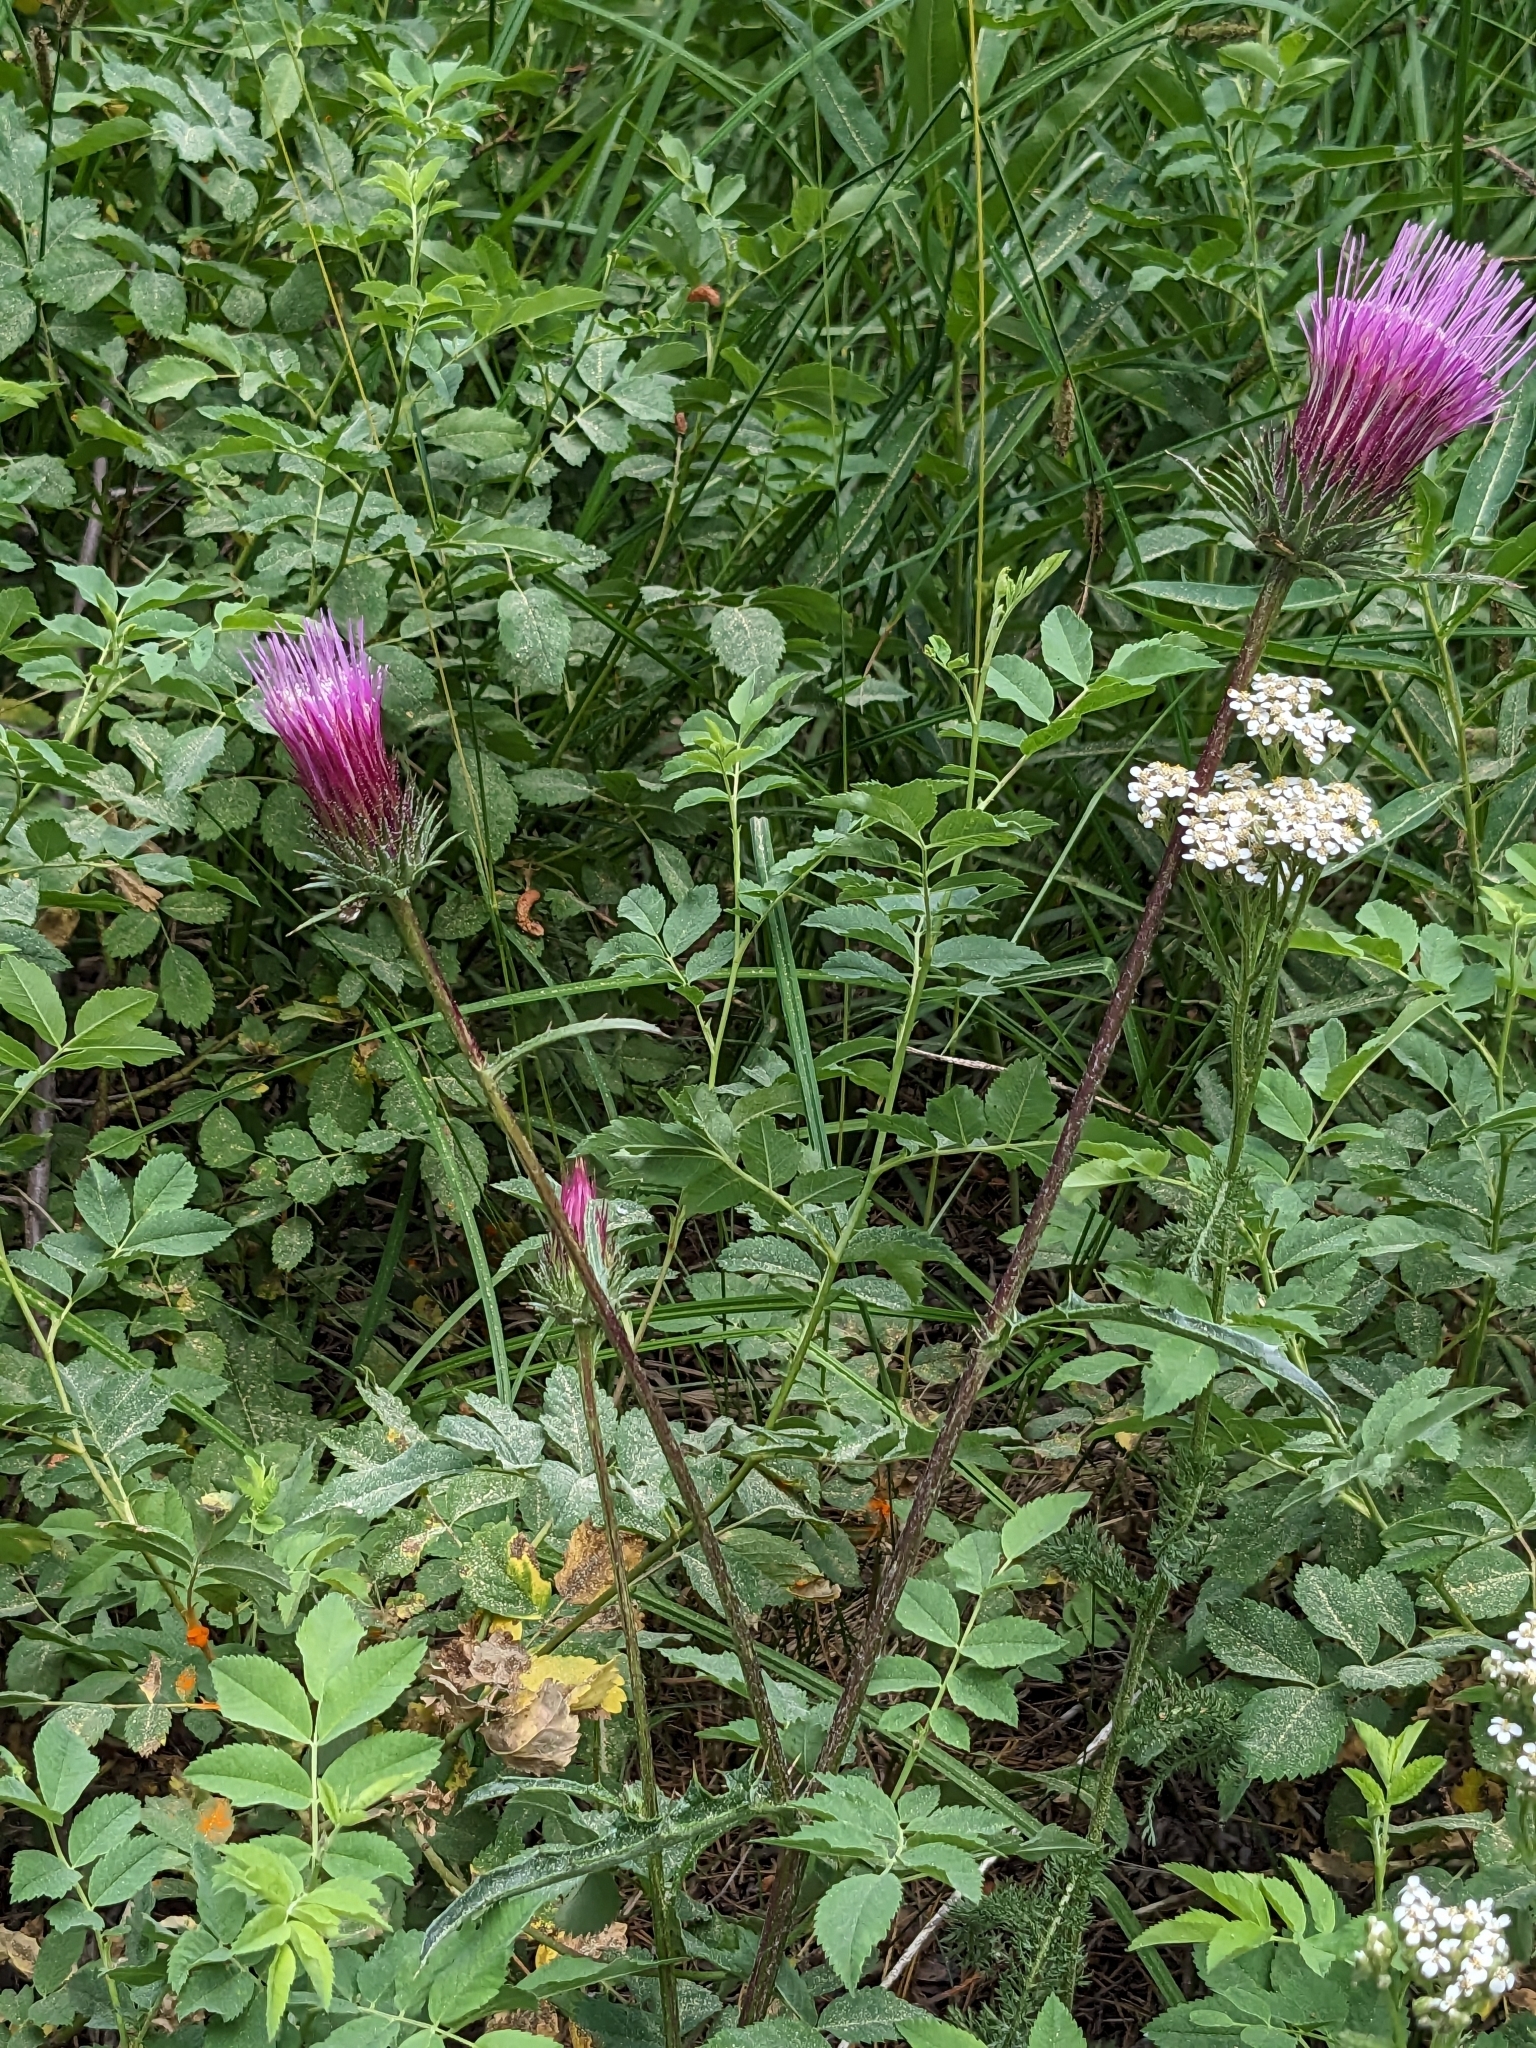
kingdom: Plantae
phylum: Tracheophyta
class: Magnoliopsida
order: Asterales
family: Asteraceae
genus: Cirsium
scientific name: Cirsium andersonii
